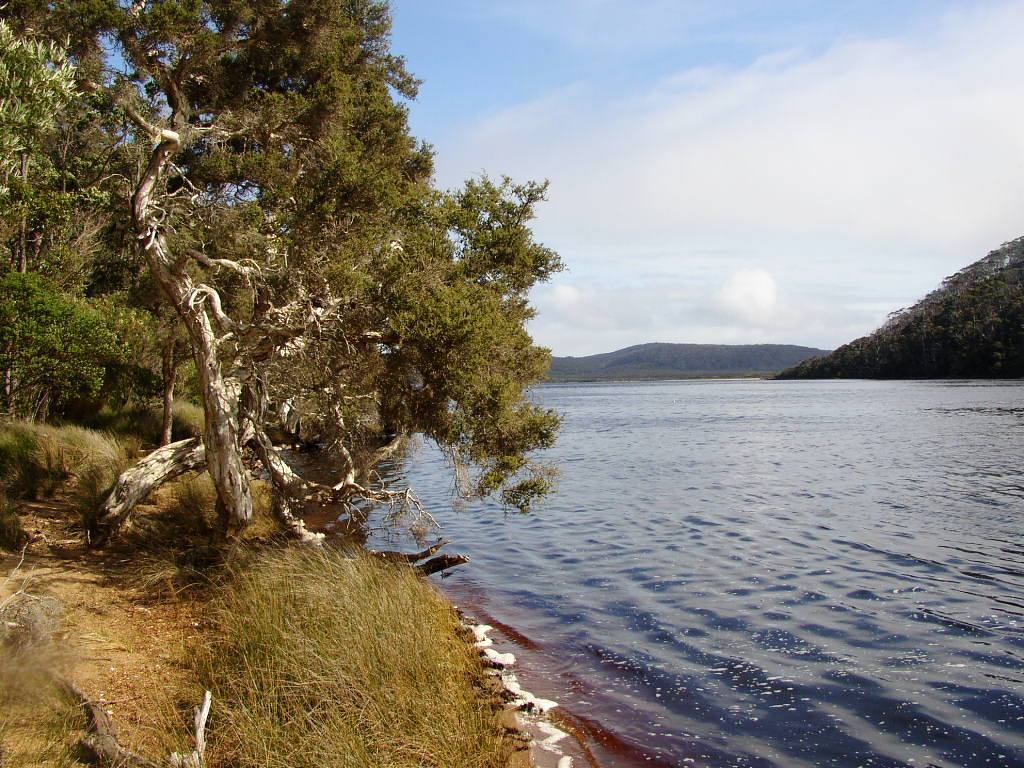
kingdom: Plantae
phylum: Tracheophyta
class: Magnoliopsida
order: Myrtales
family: Myrtaceae
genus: Melaleuca
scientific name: Melaleuca cuticularis
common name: Saltwater paperbark
